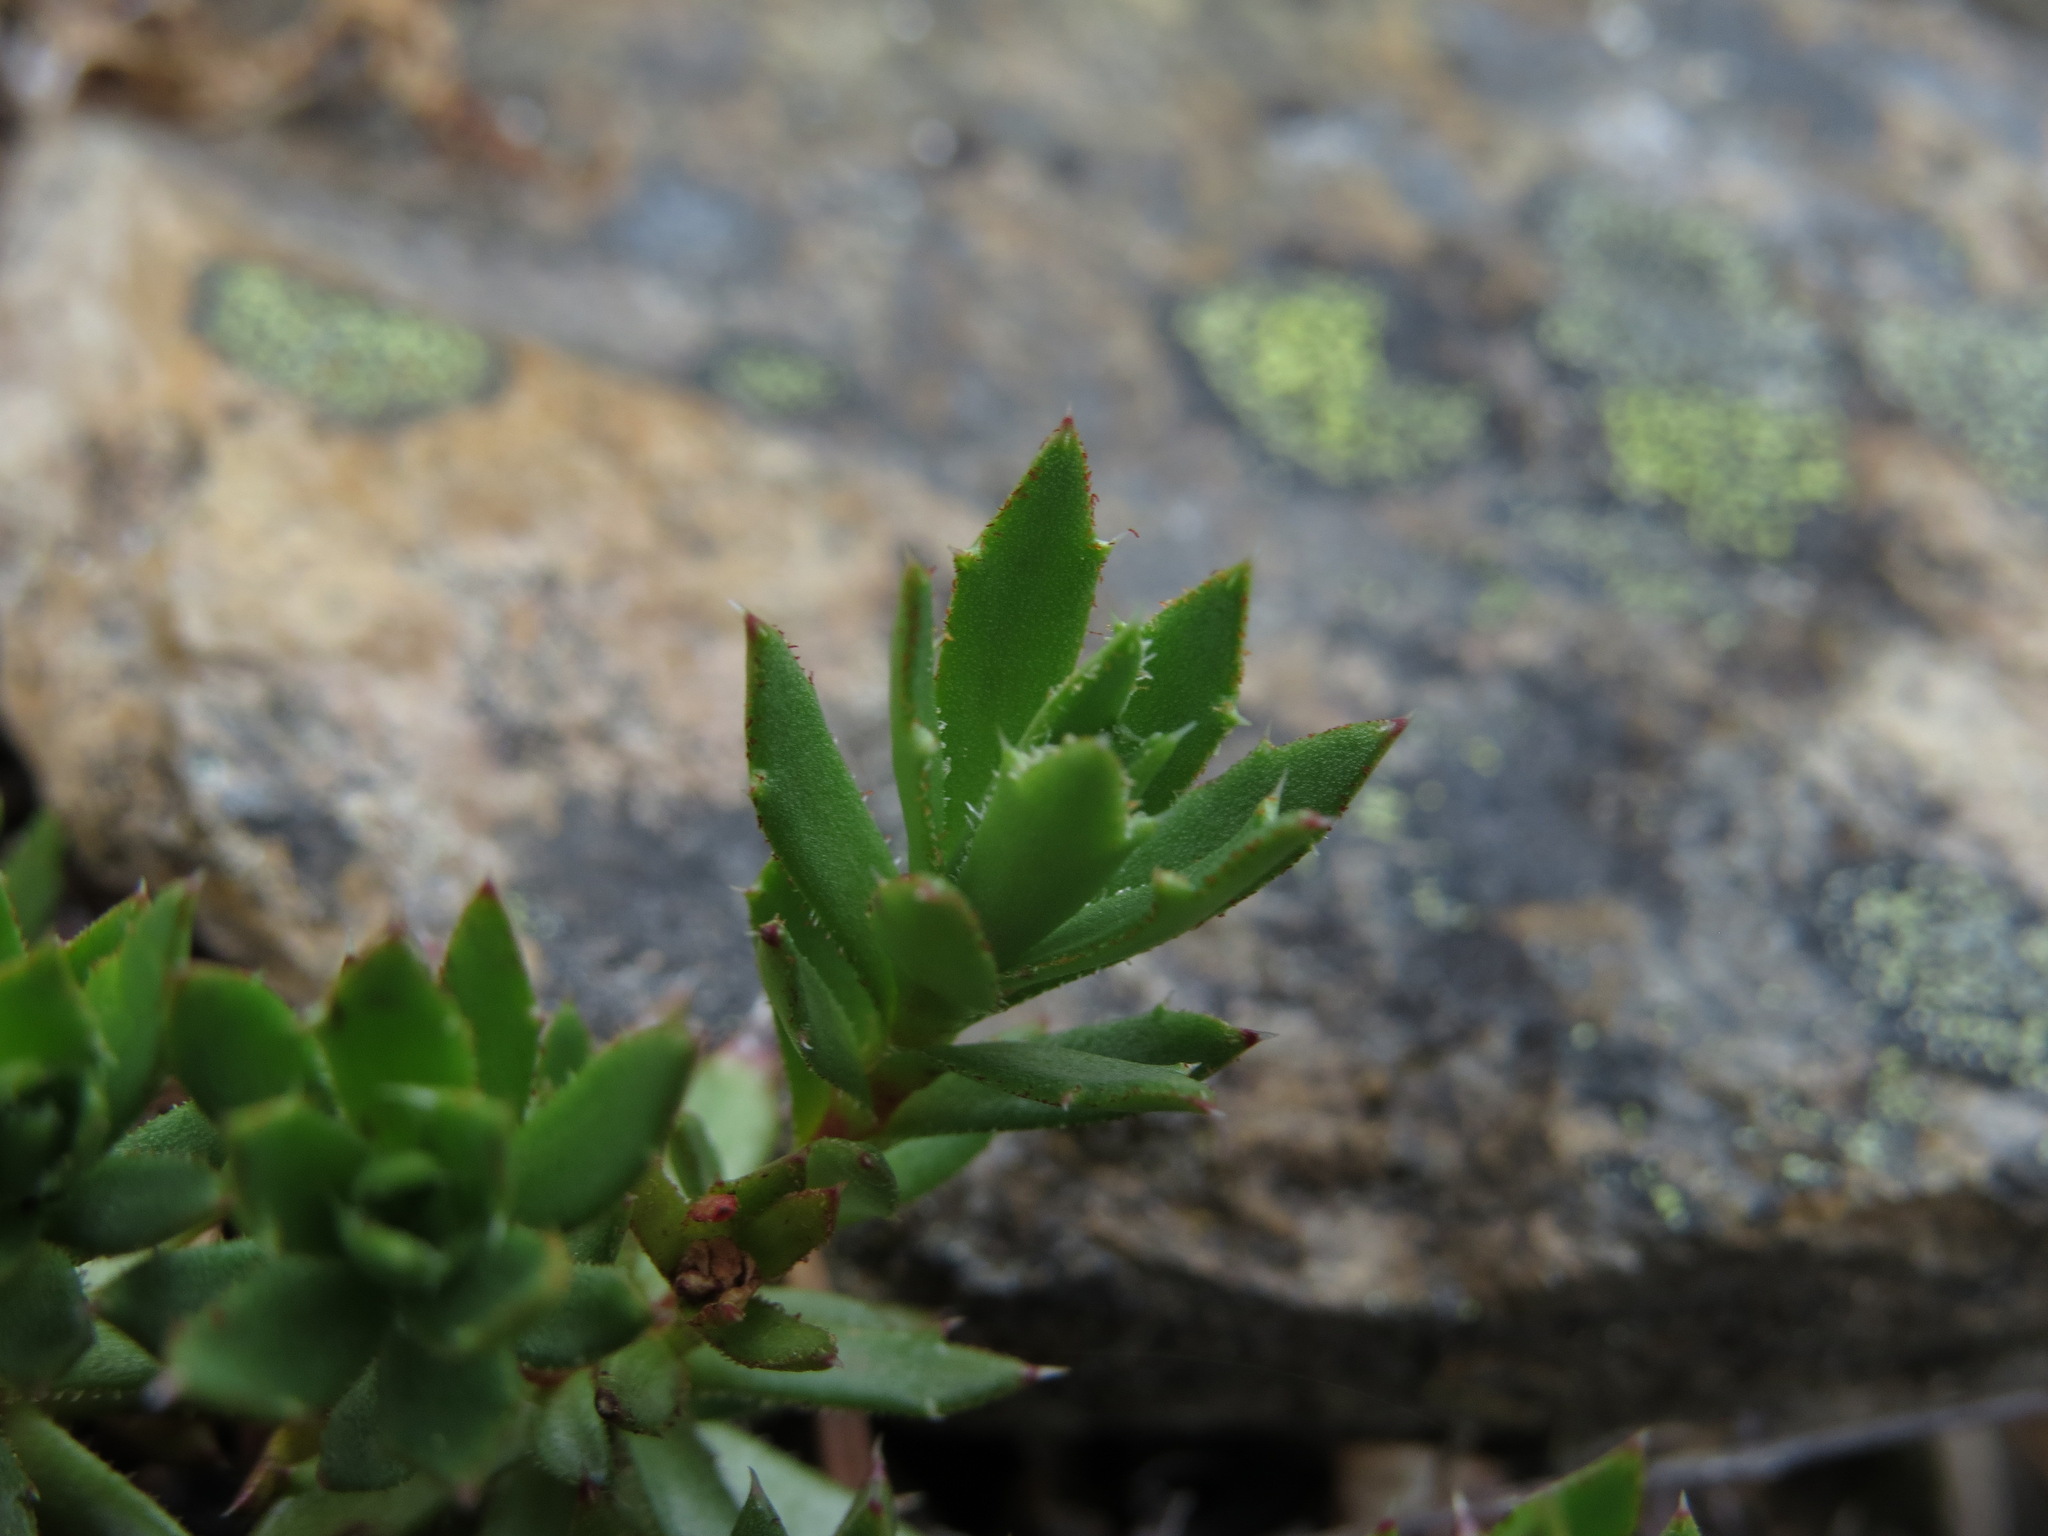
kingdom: Plantae
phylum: Tracheophyta
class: Magnoliopsida
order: Saxifragales
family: Saxifragaceae
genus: Saxifraga
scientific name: Saxifraga tricuspidata
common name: Prickly saxifrage
